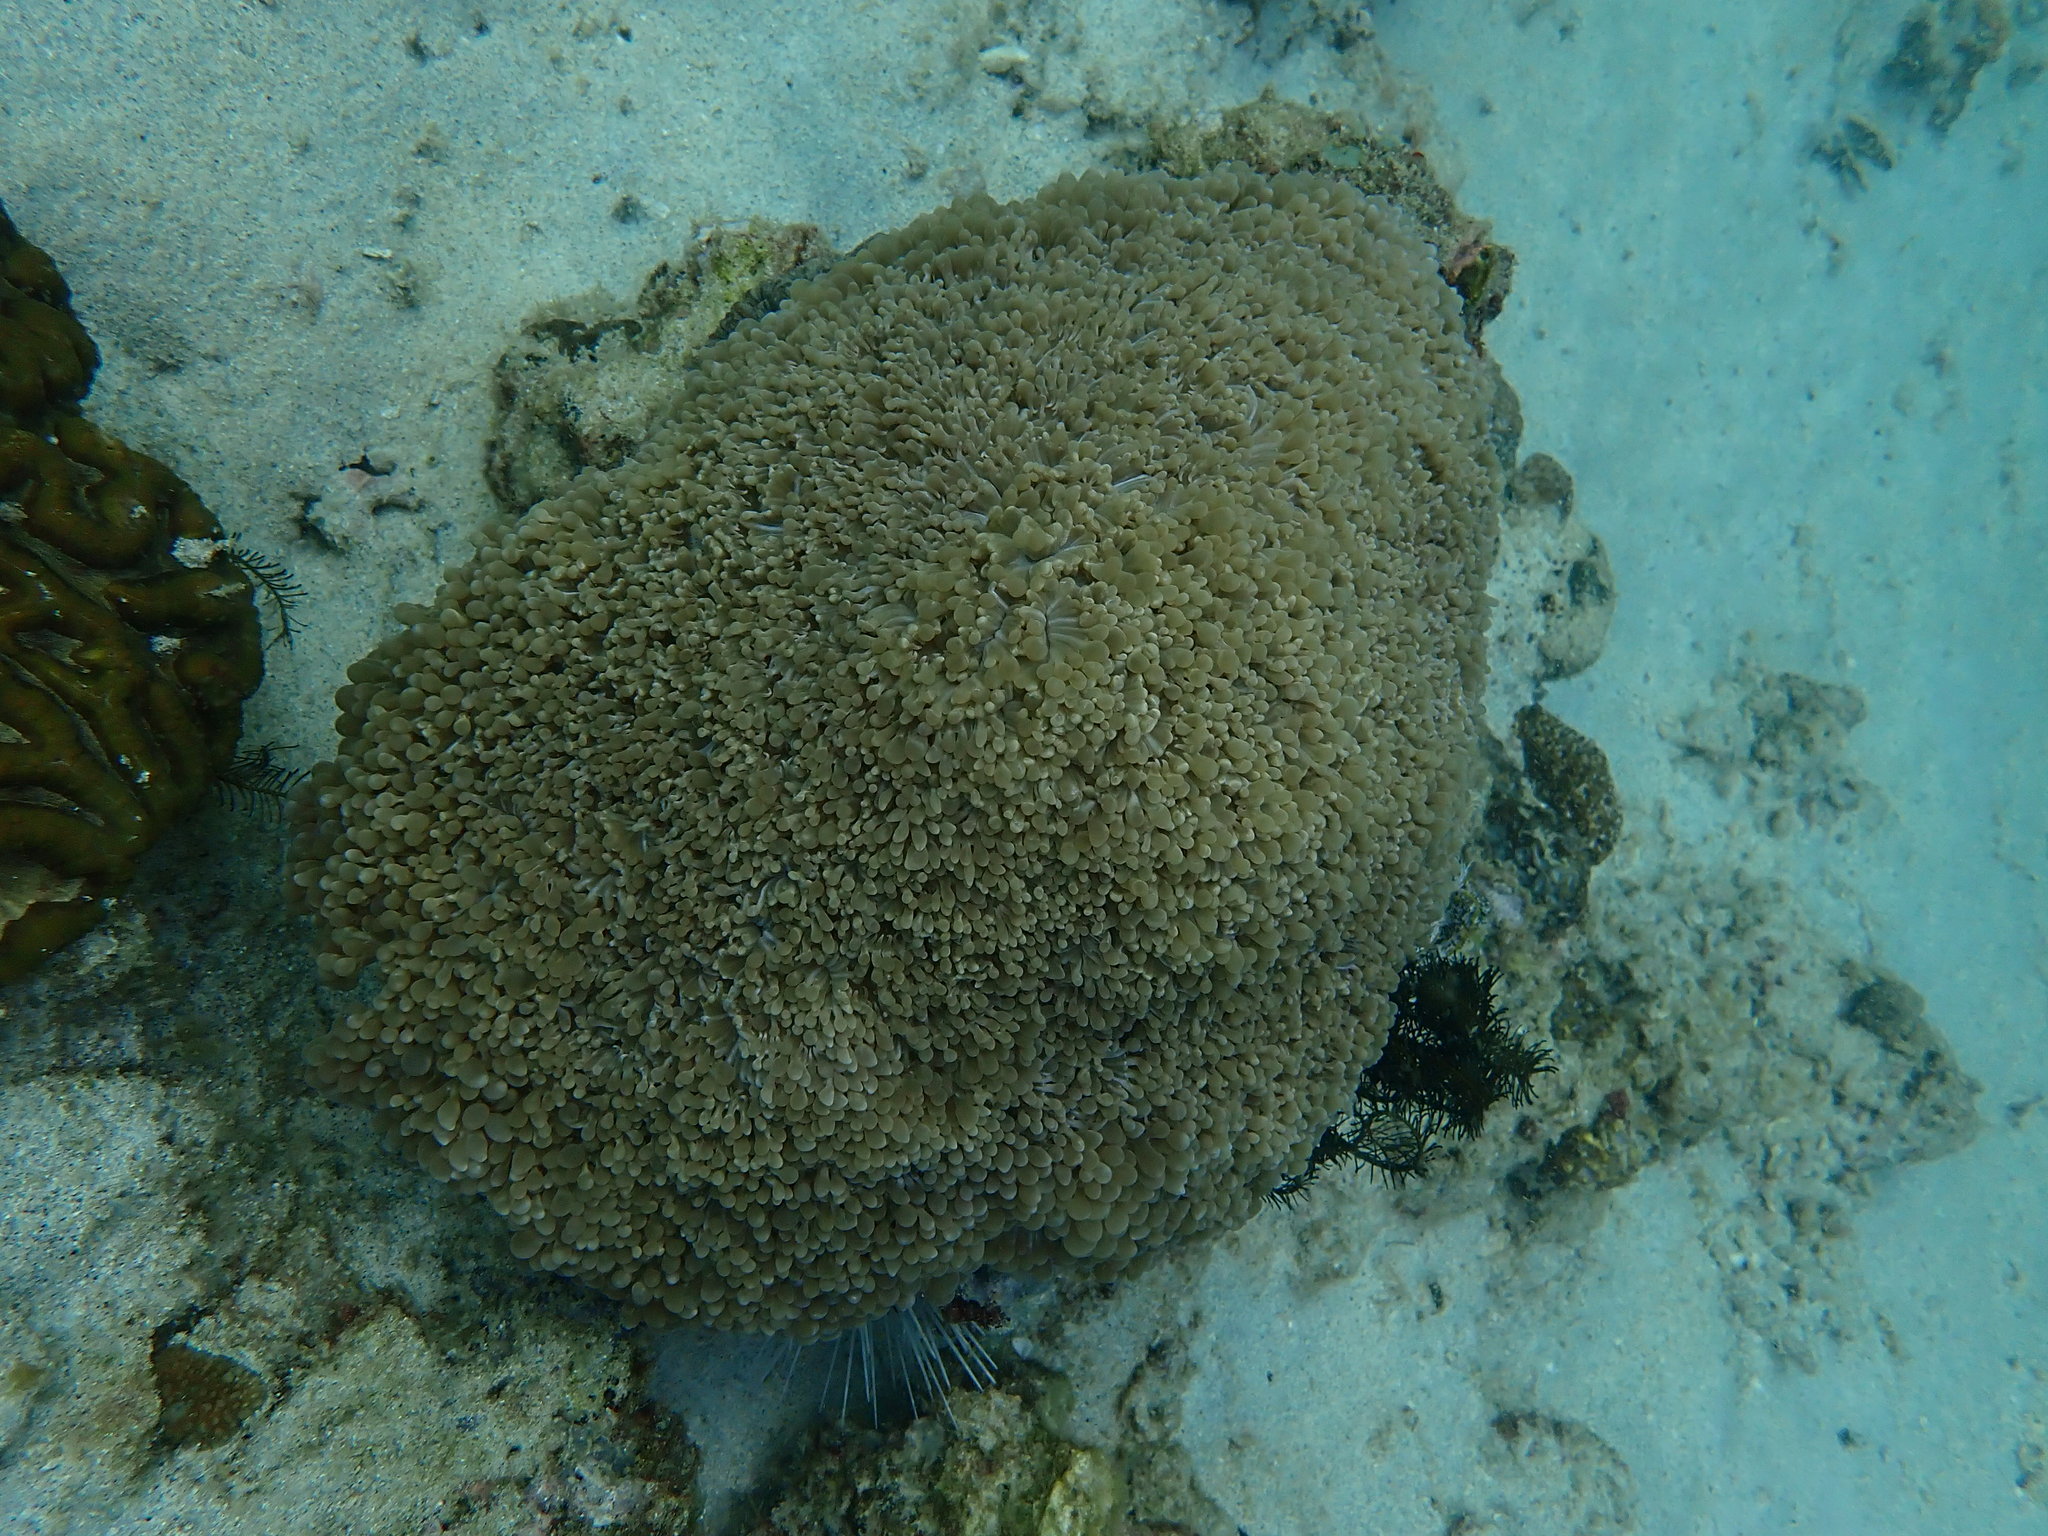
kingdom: Animalia
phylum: Cnidaria
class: Anthozoa
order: Scleractinia
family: Plerogyridae
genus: Physogyra
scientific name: Physogyra lichtensteini
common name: Tipped bubblegum coral
